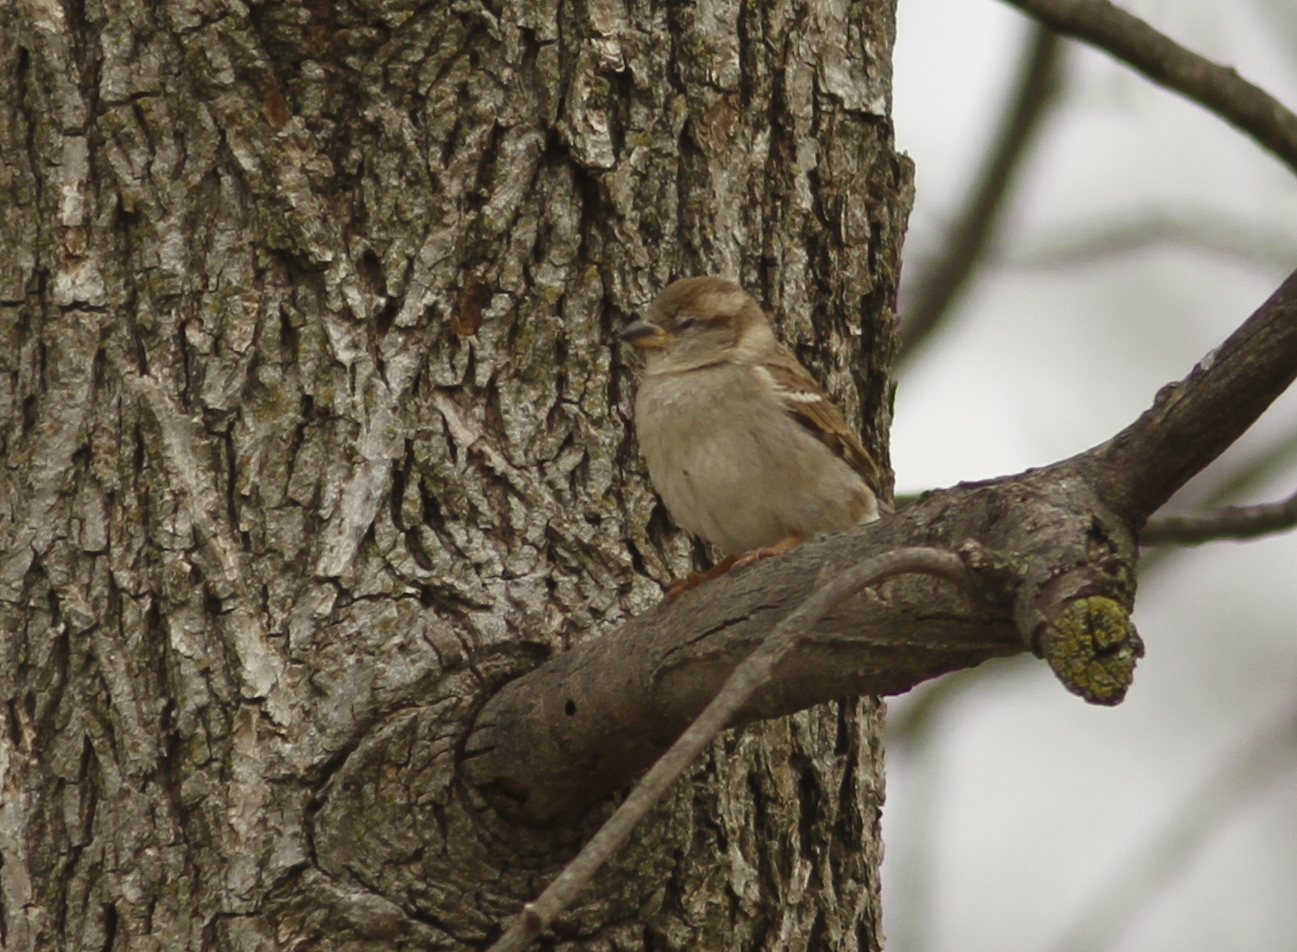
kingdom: Animalia
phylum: Chordata
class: Aves
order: Passeriformes
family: Passeridae
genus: Passer
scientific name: Passer domesticus
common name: House sparrow
